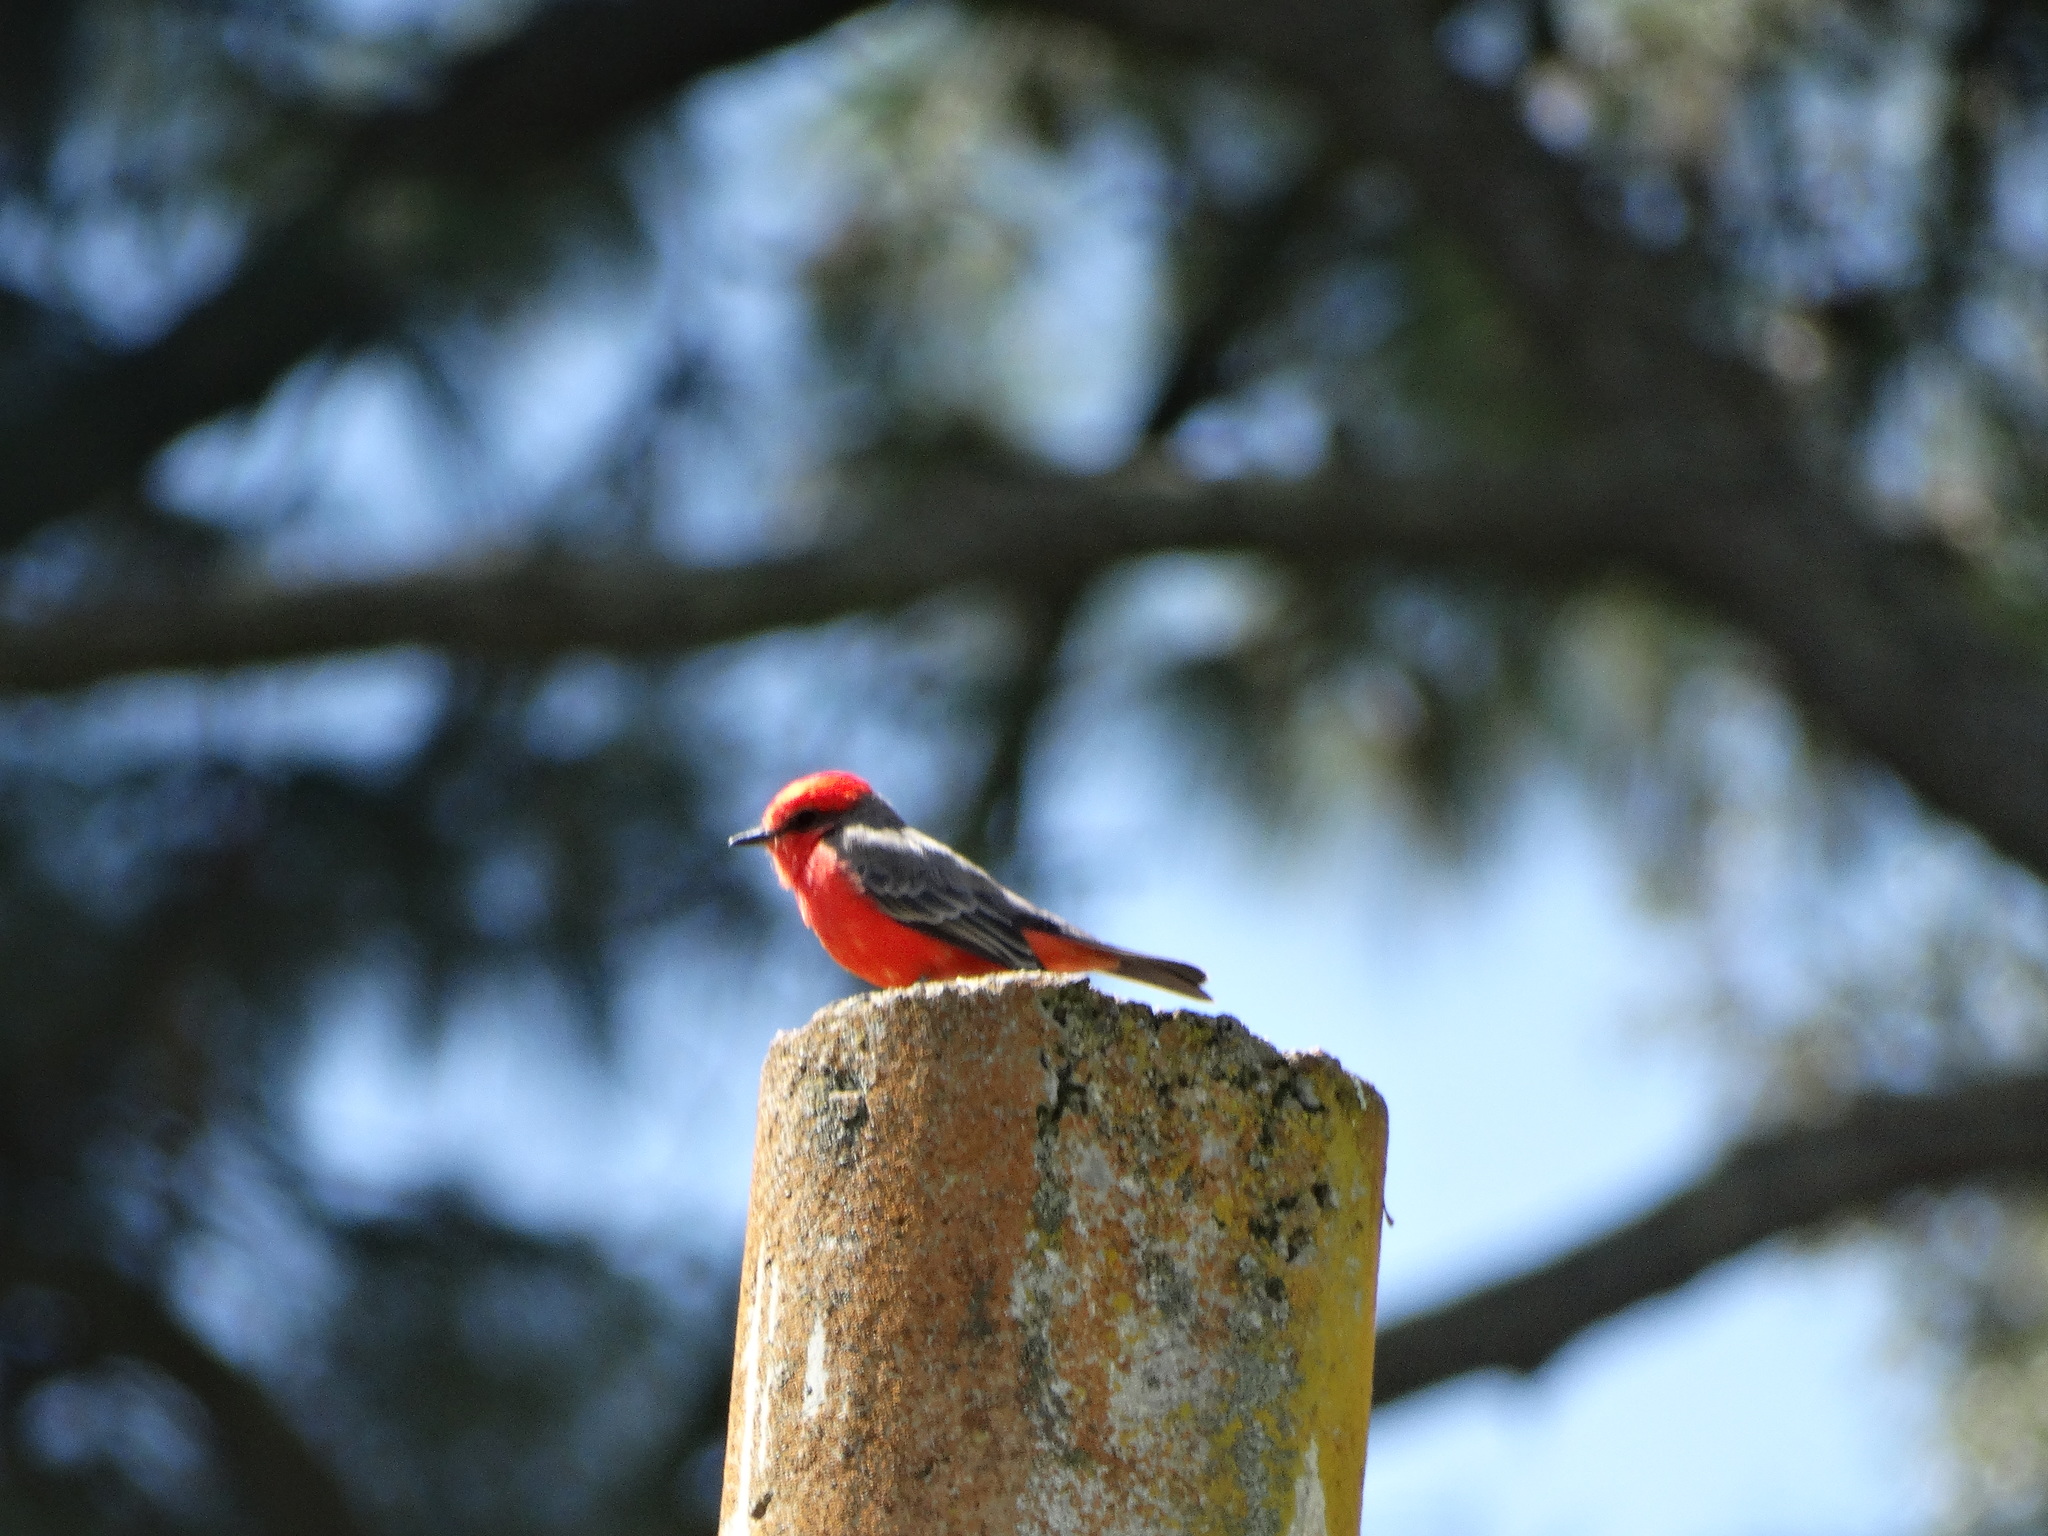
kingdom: Animalia
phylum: Chordata
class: Aves
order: Passeriformes
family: Tyrannidae
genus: Pyrocephalus
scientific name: Pyrocephalus rubinus
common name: Vermilion flycatcher
